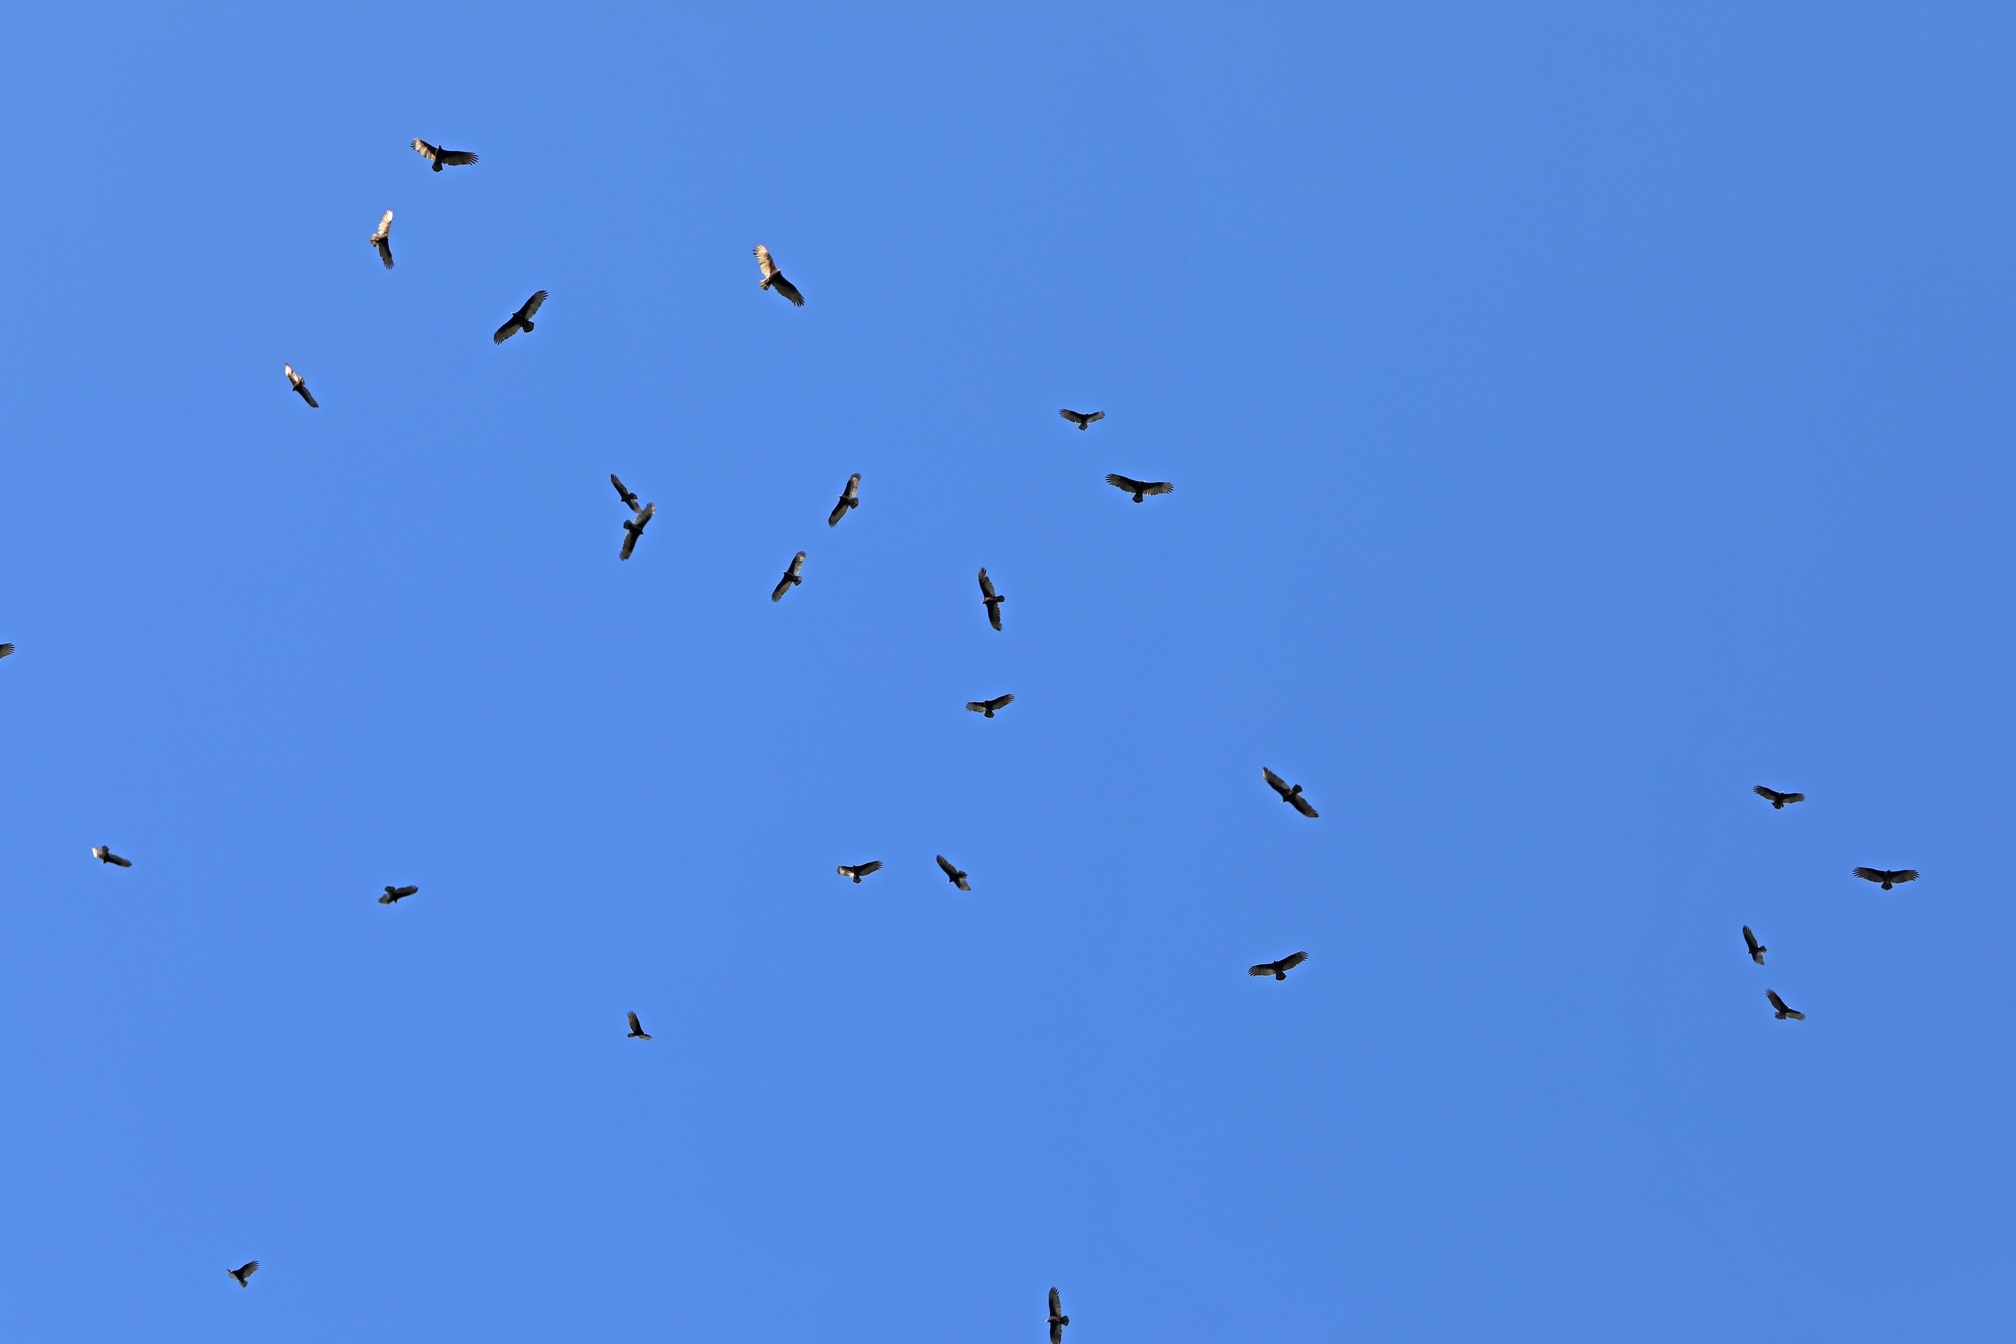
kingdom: Animalia
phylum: Chordata
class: Aves
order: Accipitriformes
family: Cathartidae
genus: Cathartes
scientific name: Cathartes aura
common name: Turkey vulture
